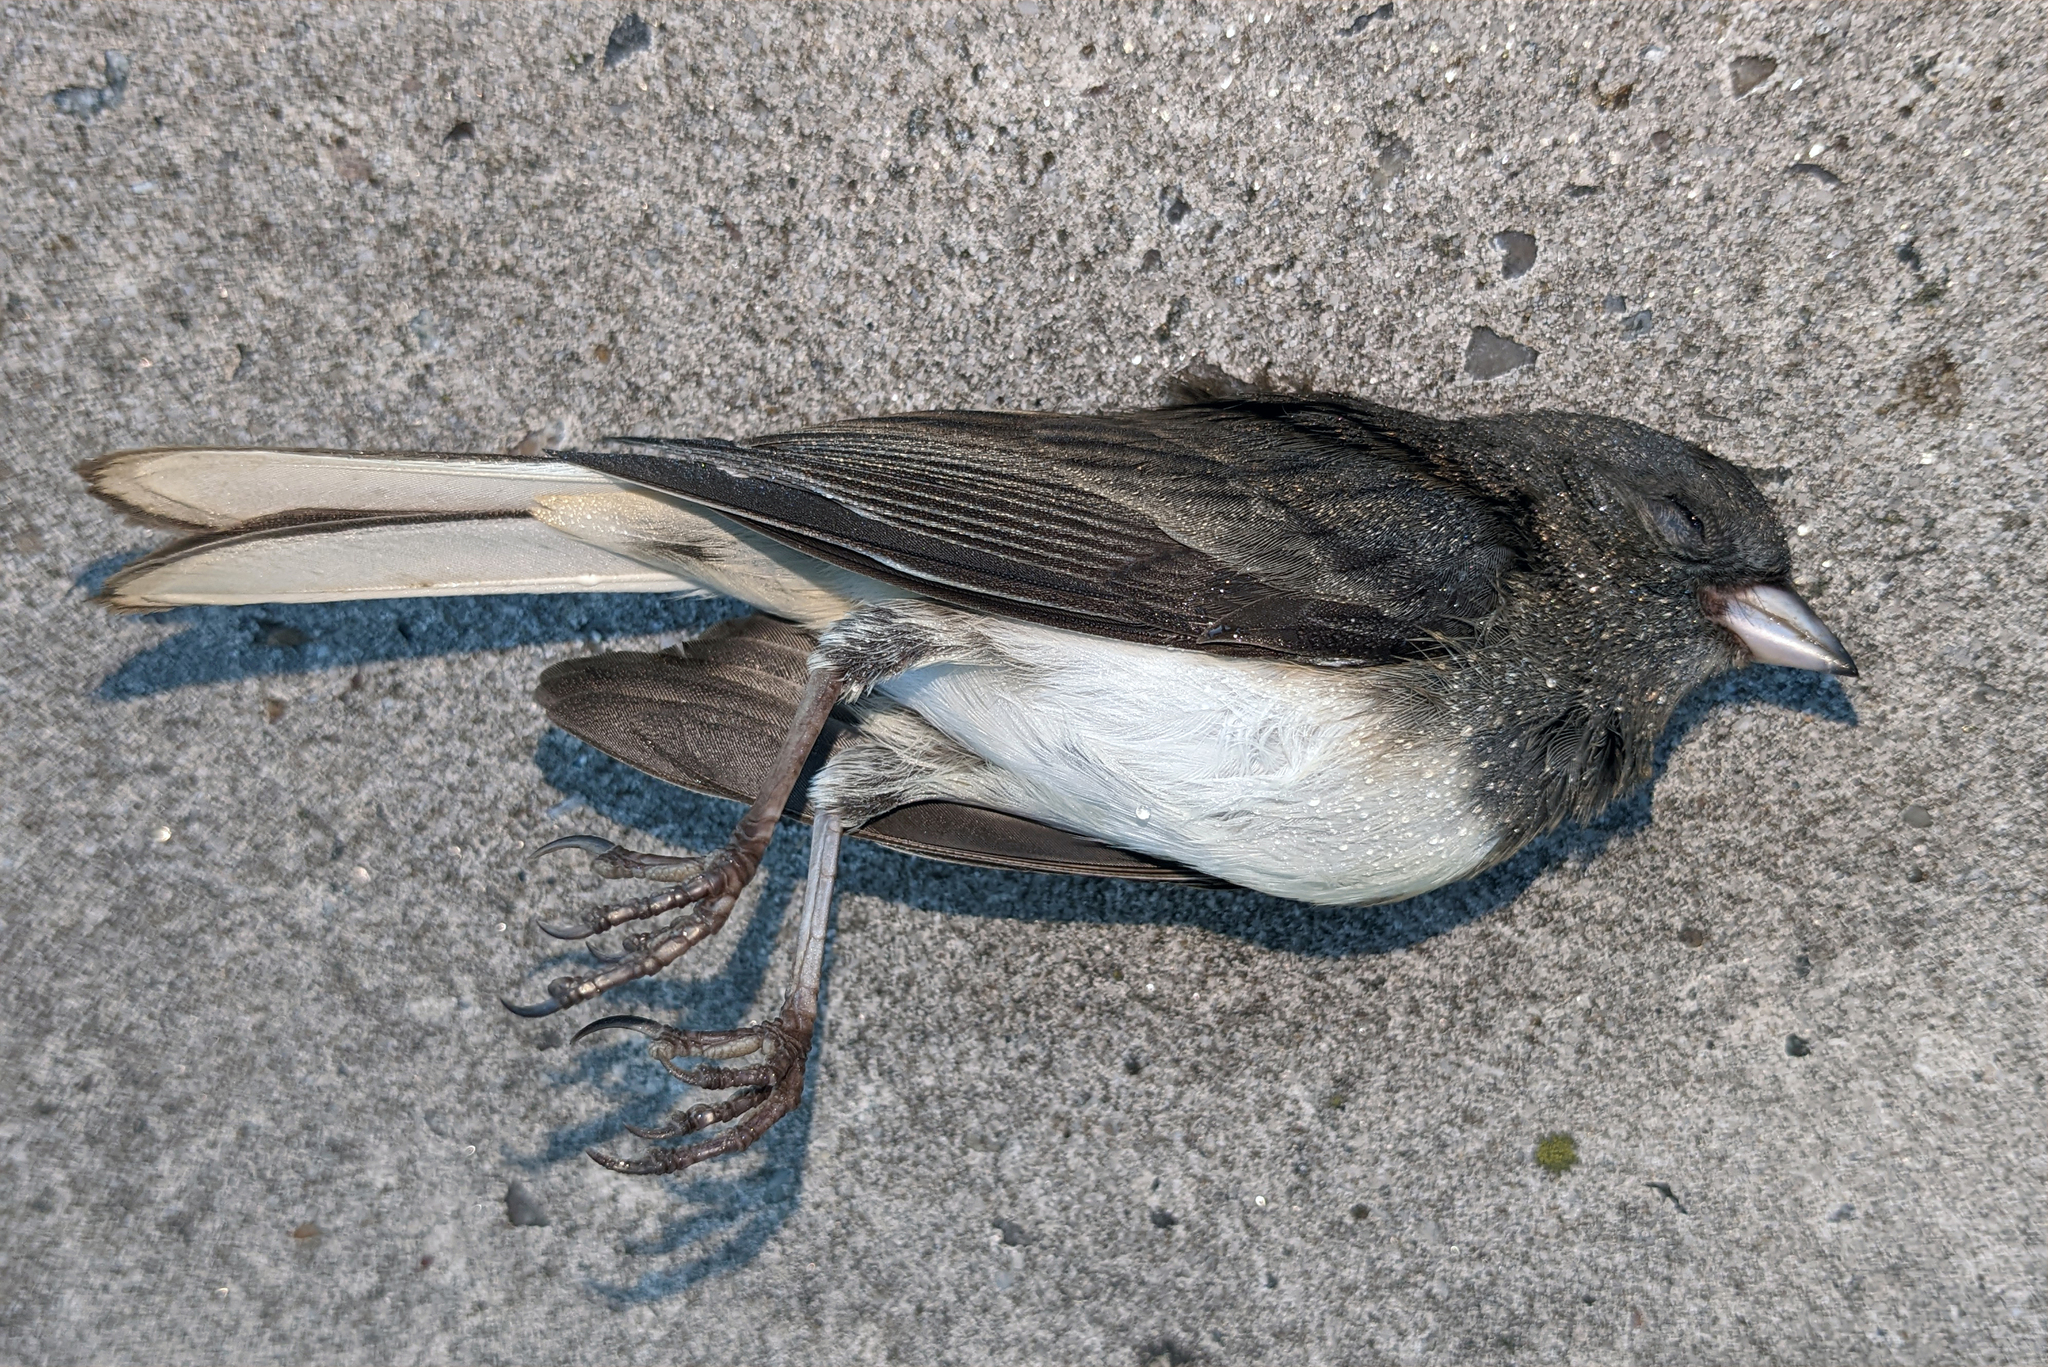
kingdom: Animalia
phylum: Chordata
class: Aves
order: Passeriformes
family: Passerellidae
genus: Junco
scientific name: Junco hyemalis
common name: Dark-eyed junco
